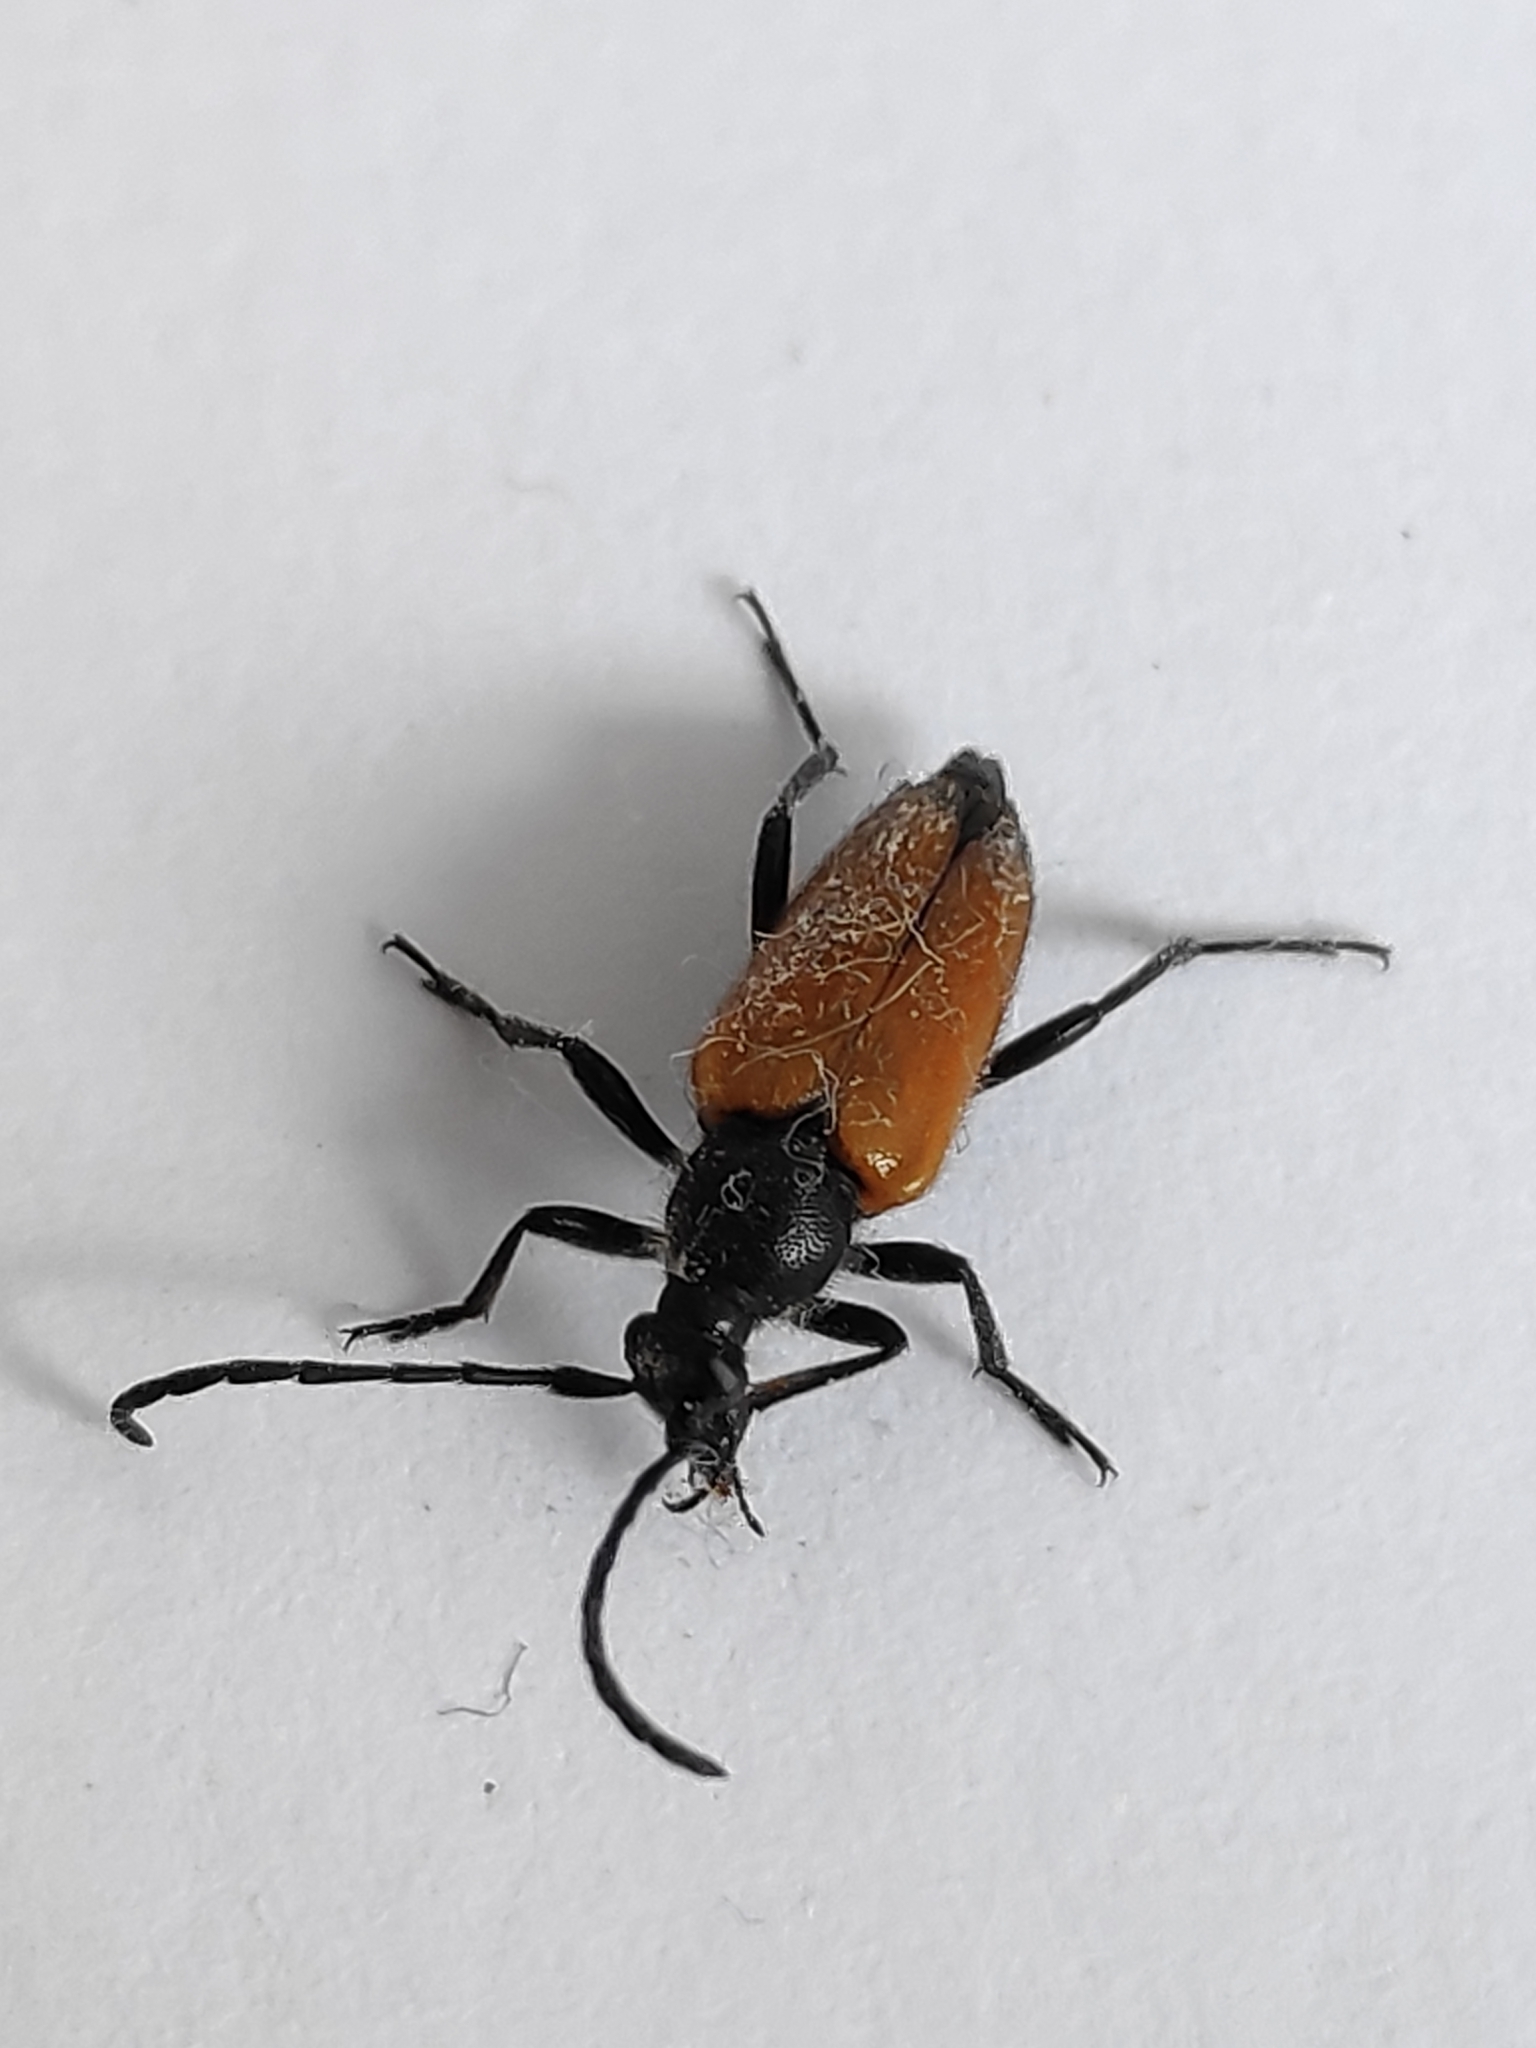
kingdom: Animalia
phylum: Arthropoda
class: Insecta
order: Coleoptera
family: Cerambycidae
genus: Paracorymbia
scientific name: Paracorymbia fulva
